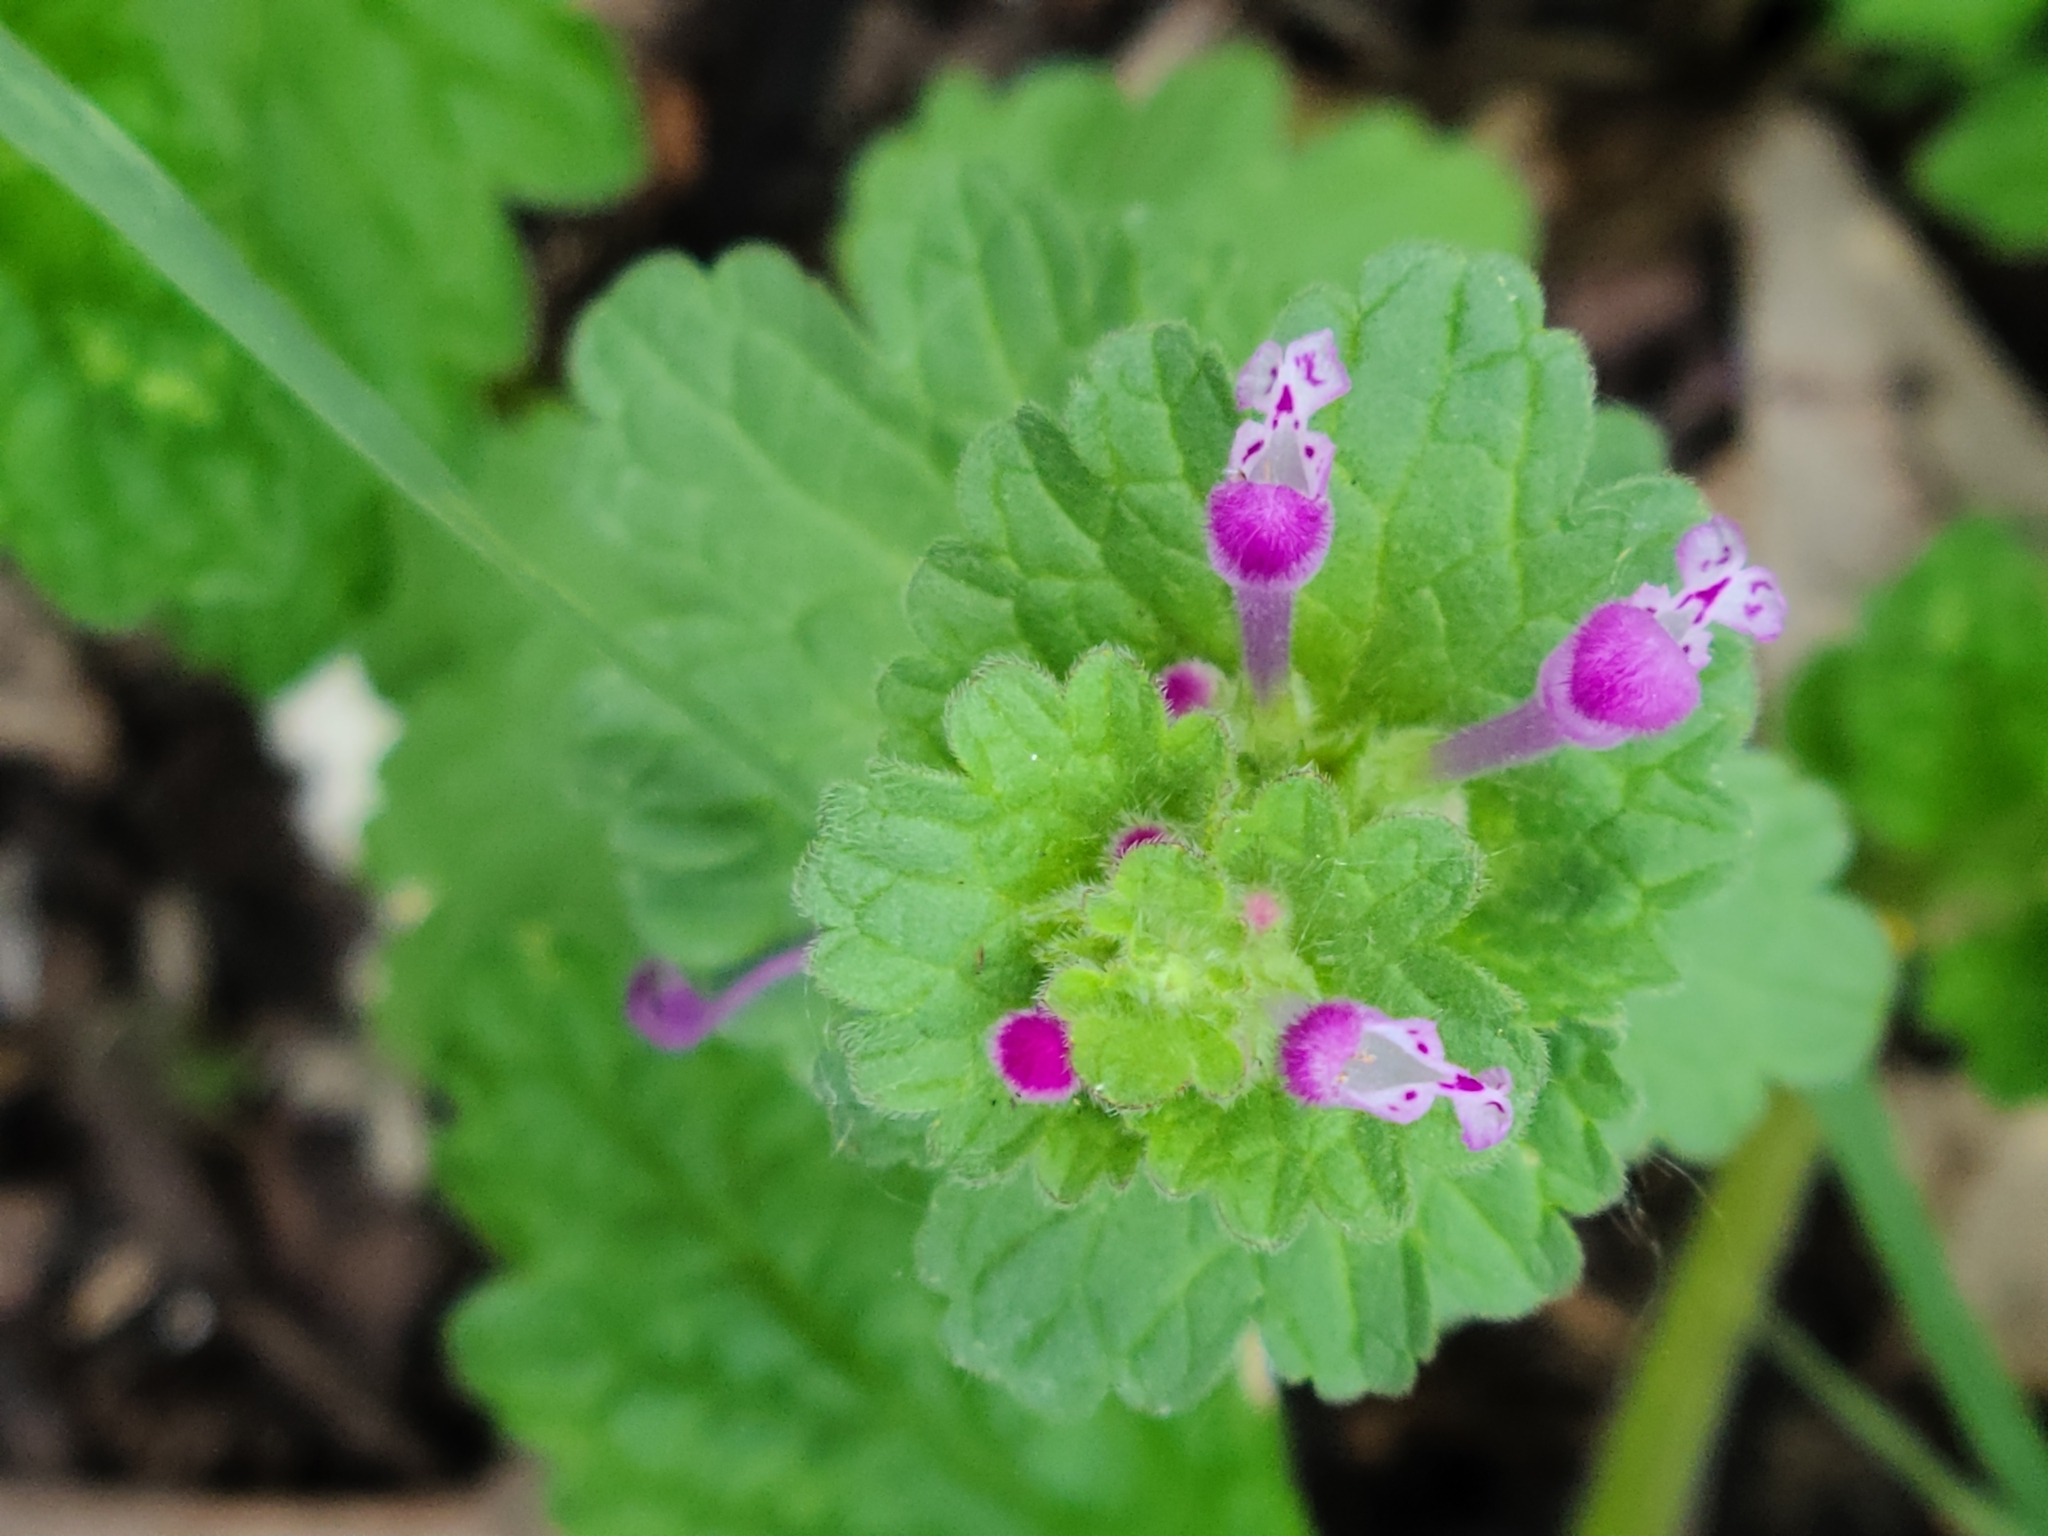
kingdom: Plantae
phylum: Tracheophyta
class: Magnoliopsida
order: Lamiales
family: Lamiaceae
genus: Lamium
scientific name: Lamium amplexicaule
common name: Henbit dead-nettle
